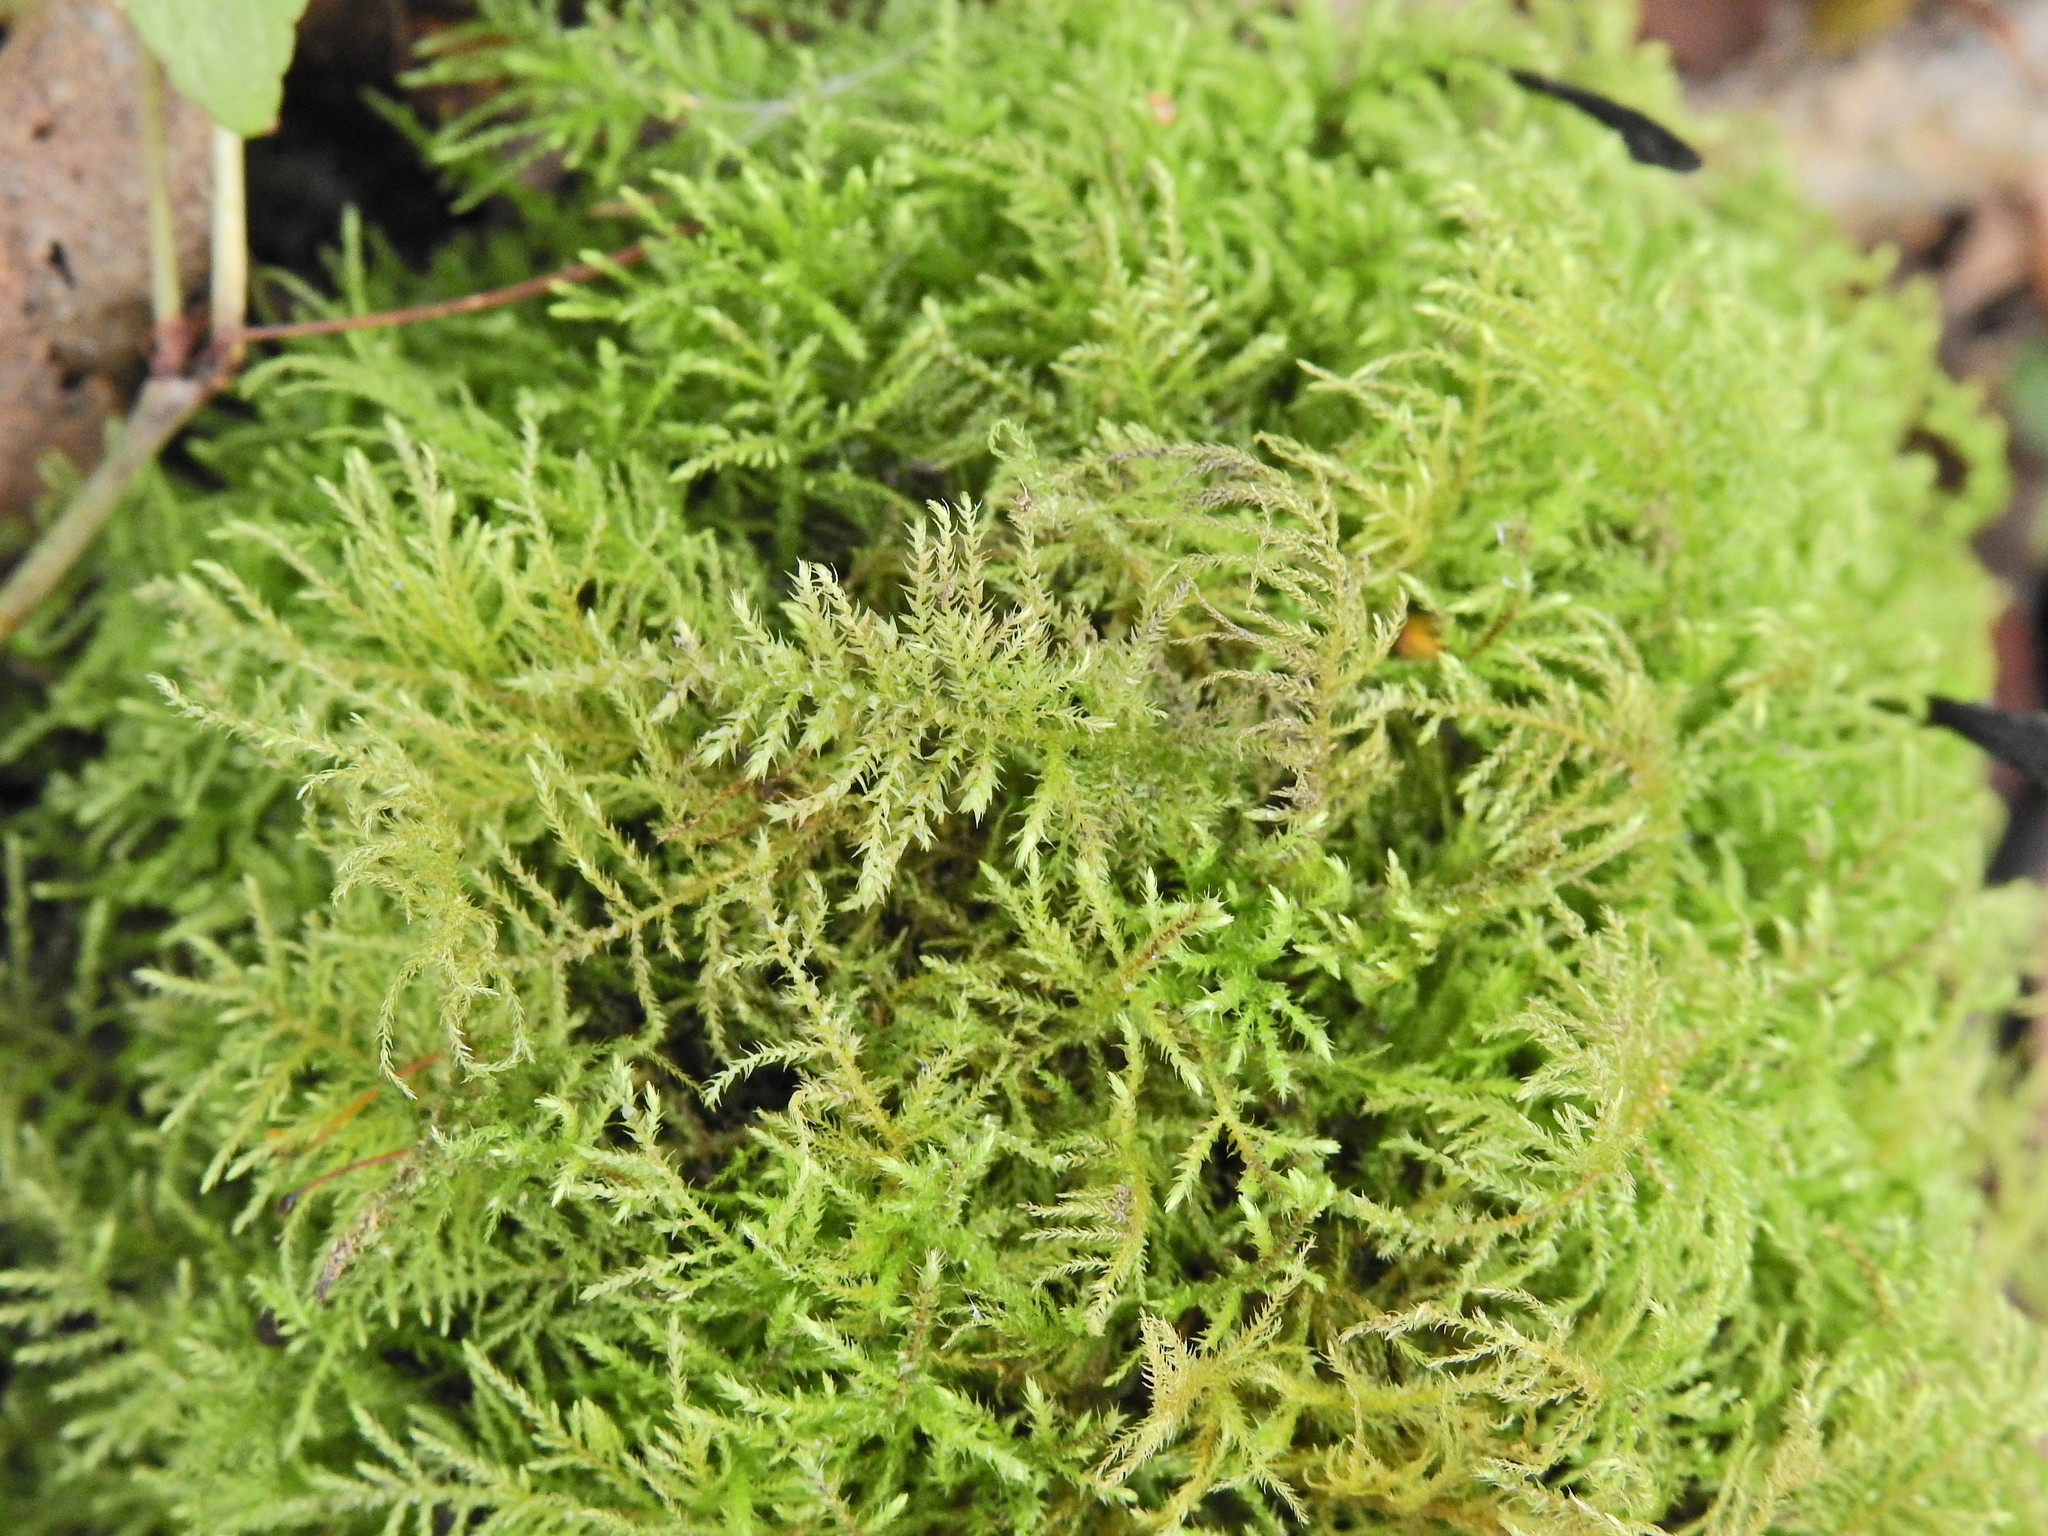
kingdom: Plantae
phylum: Bryophyta
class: Bryopsida
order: Hypnales
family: Brachytheciaceae
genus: Kindbergia
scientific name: Kindbergia praelonga
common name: Slender beaked moss
